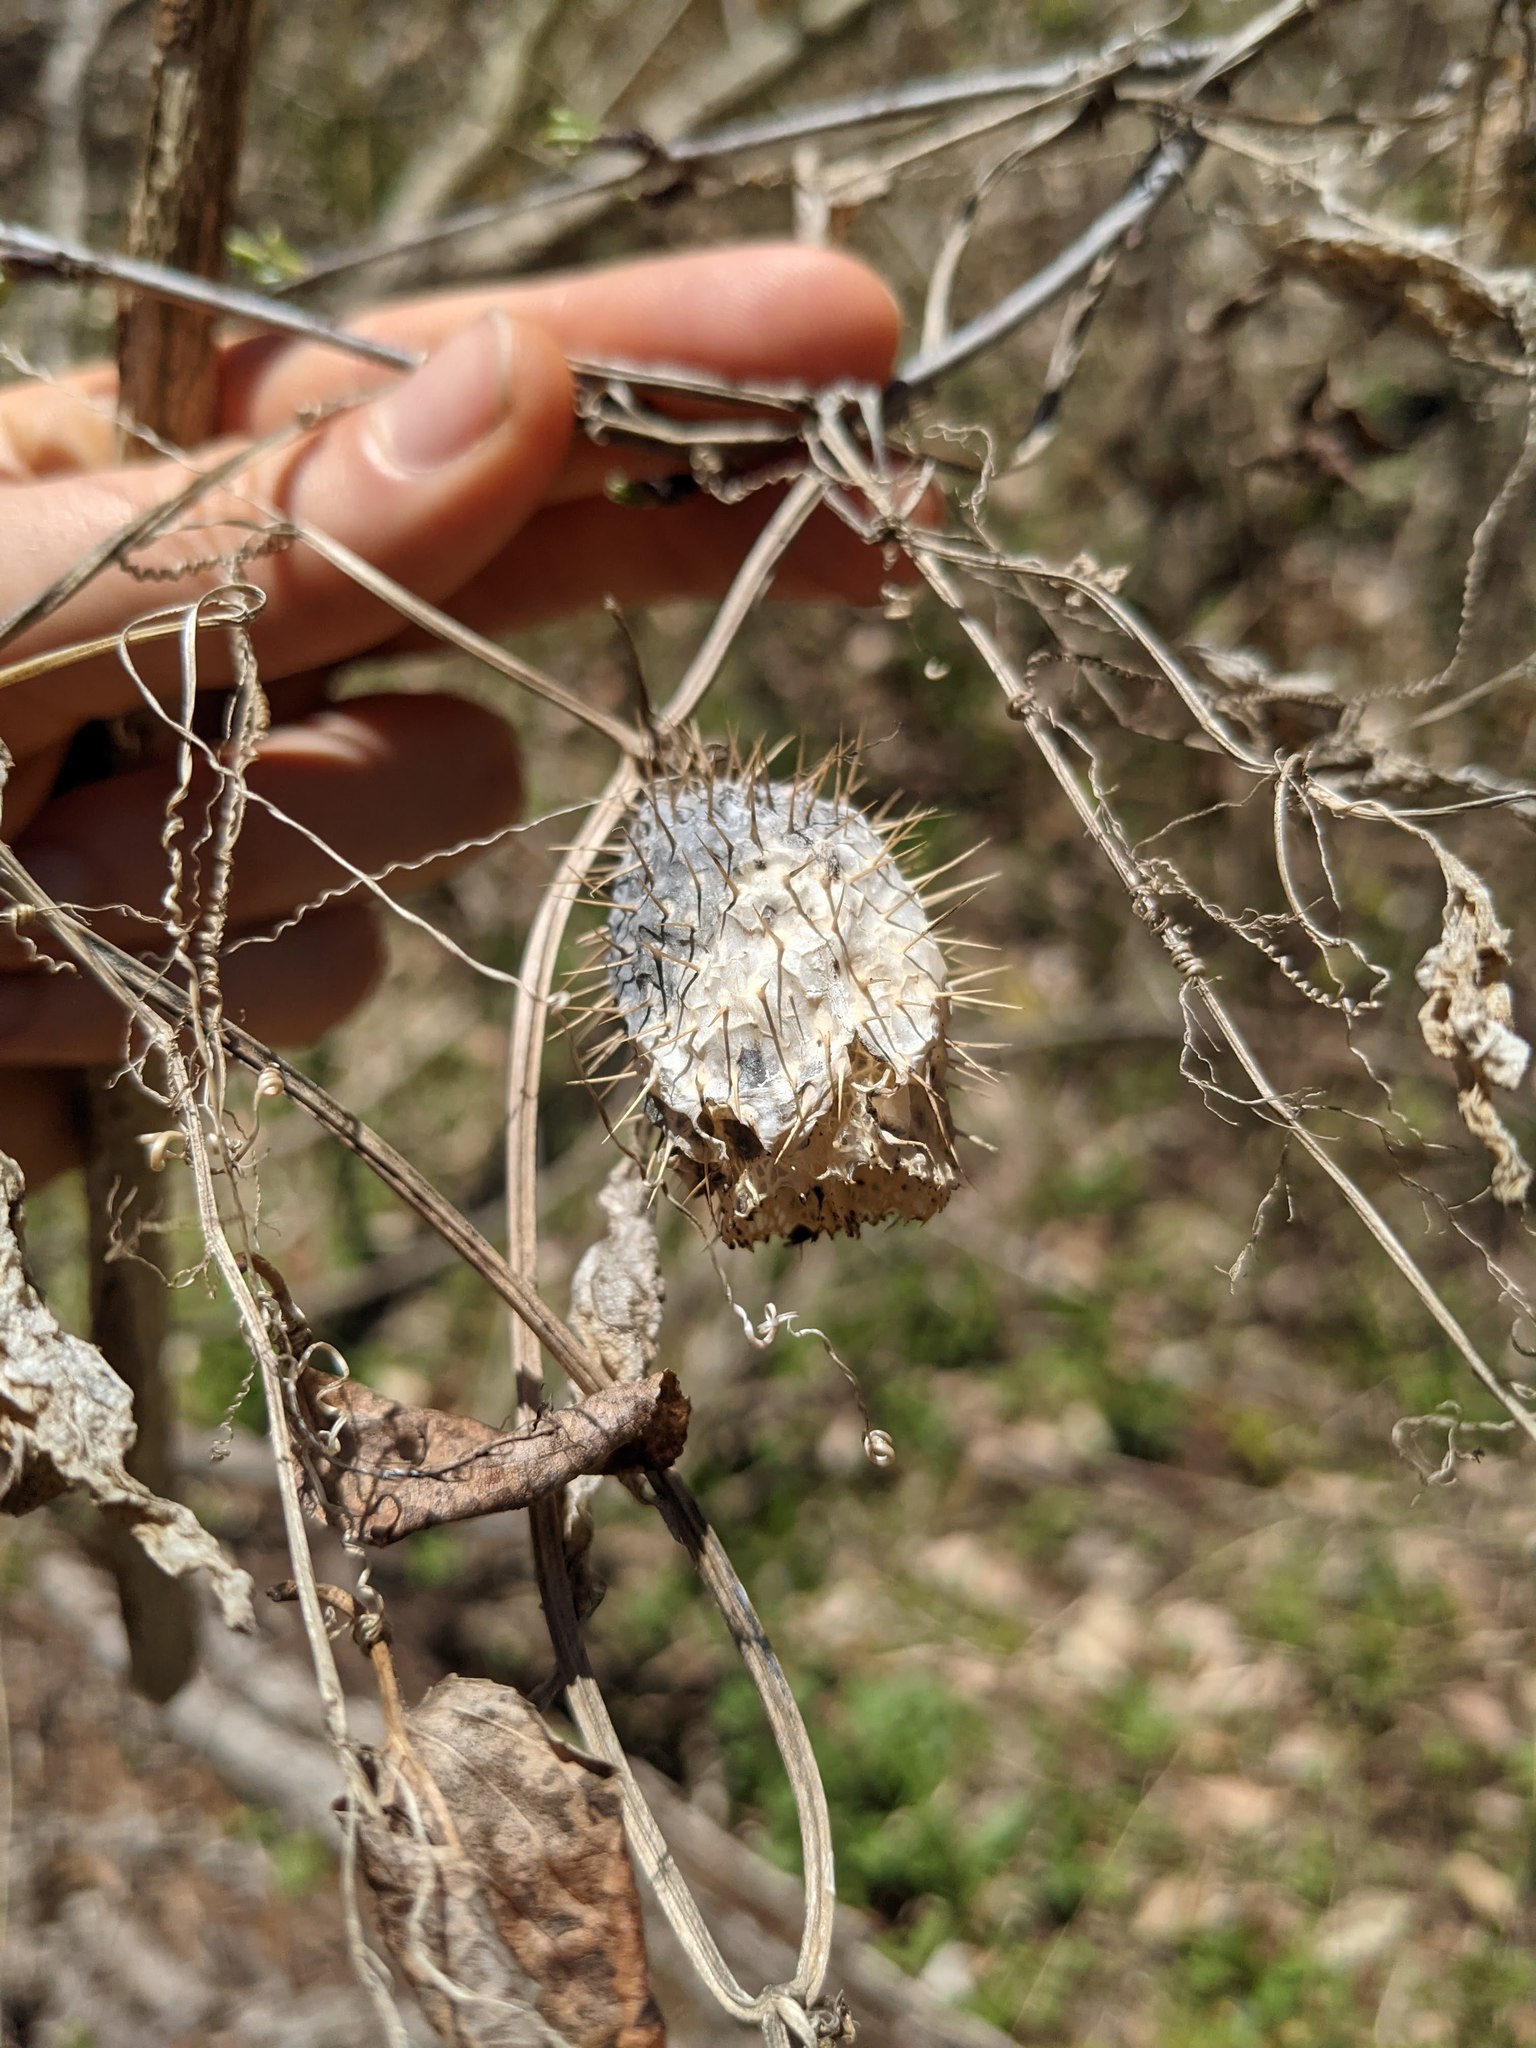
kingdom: Plantae
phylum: Tracheophyta
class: Magnoliopsida
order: Cucurbitales
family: Cucurbitaceae
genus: Echinocystis
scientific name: Echinocystis lobata
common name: Wild cucumber
